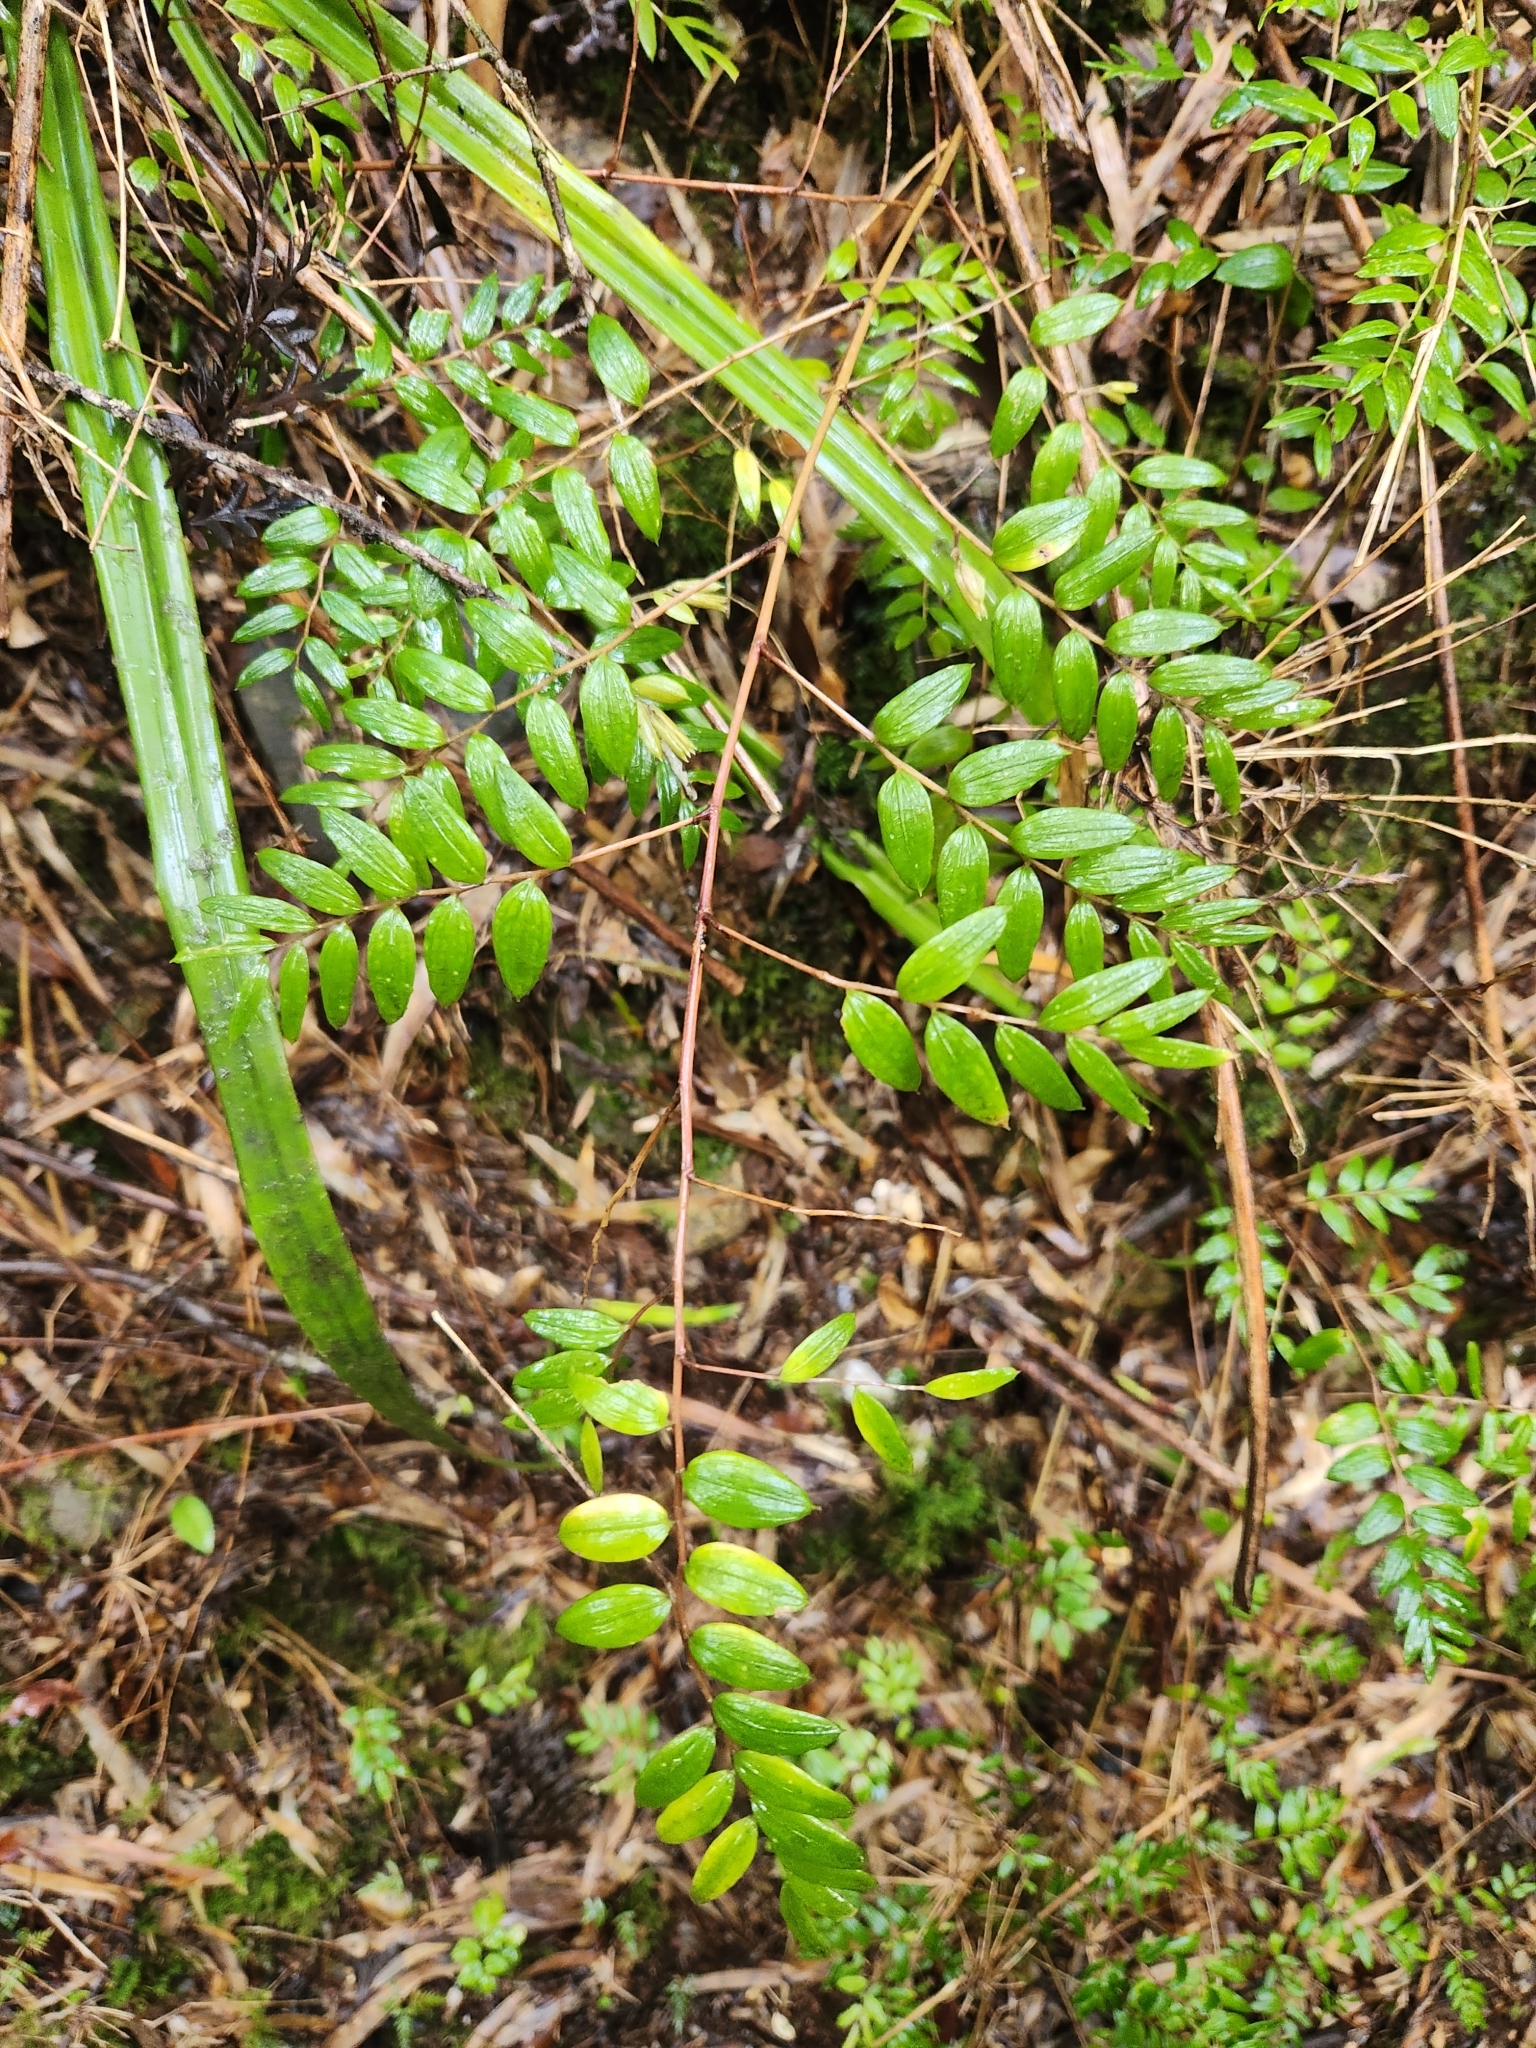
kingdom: Plantae
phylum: Tracheophyta
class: Liliopsida
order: Liliales
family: Alstroemeriaceae
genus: Luzuriaga
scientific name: Luzuriaga polyphylla
